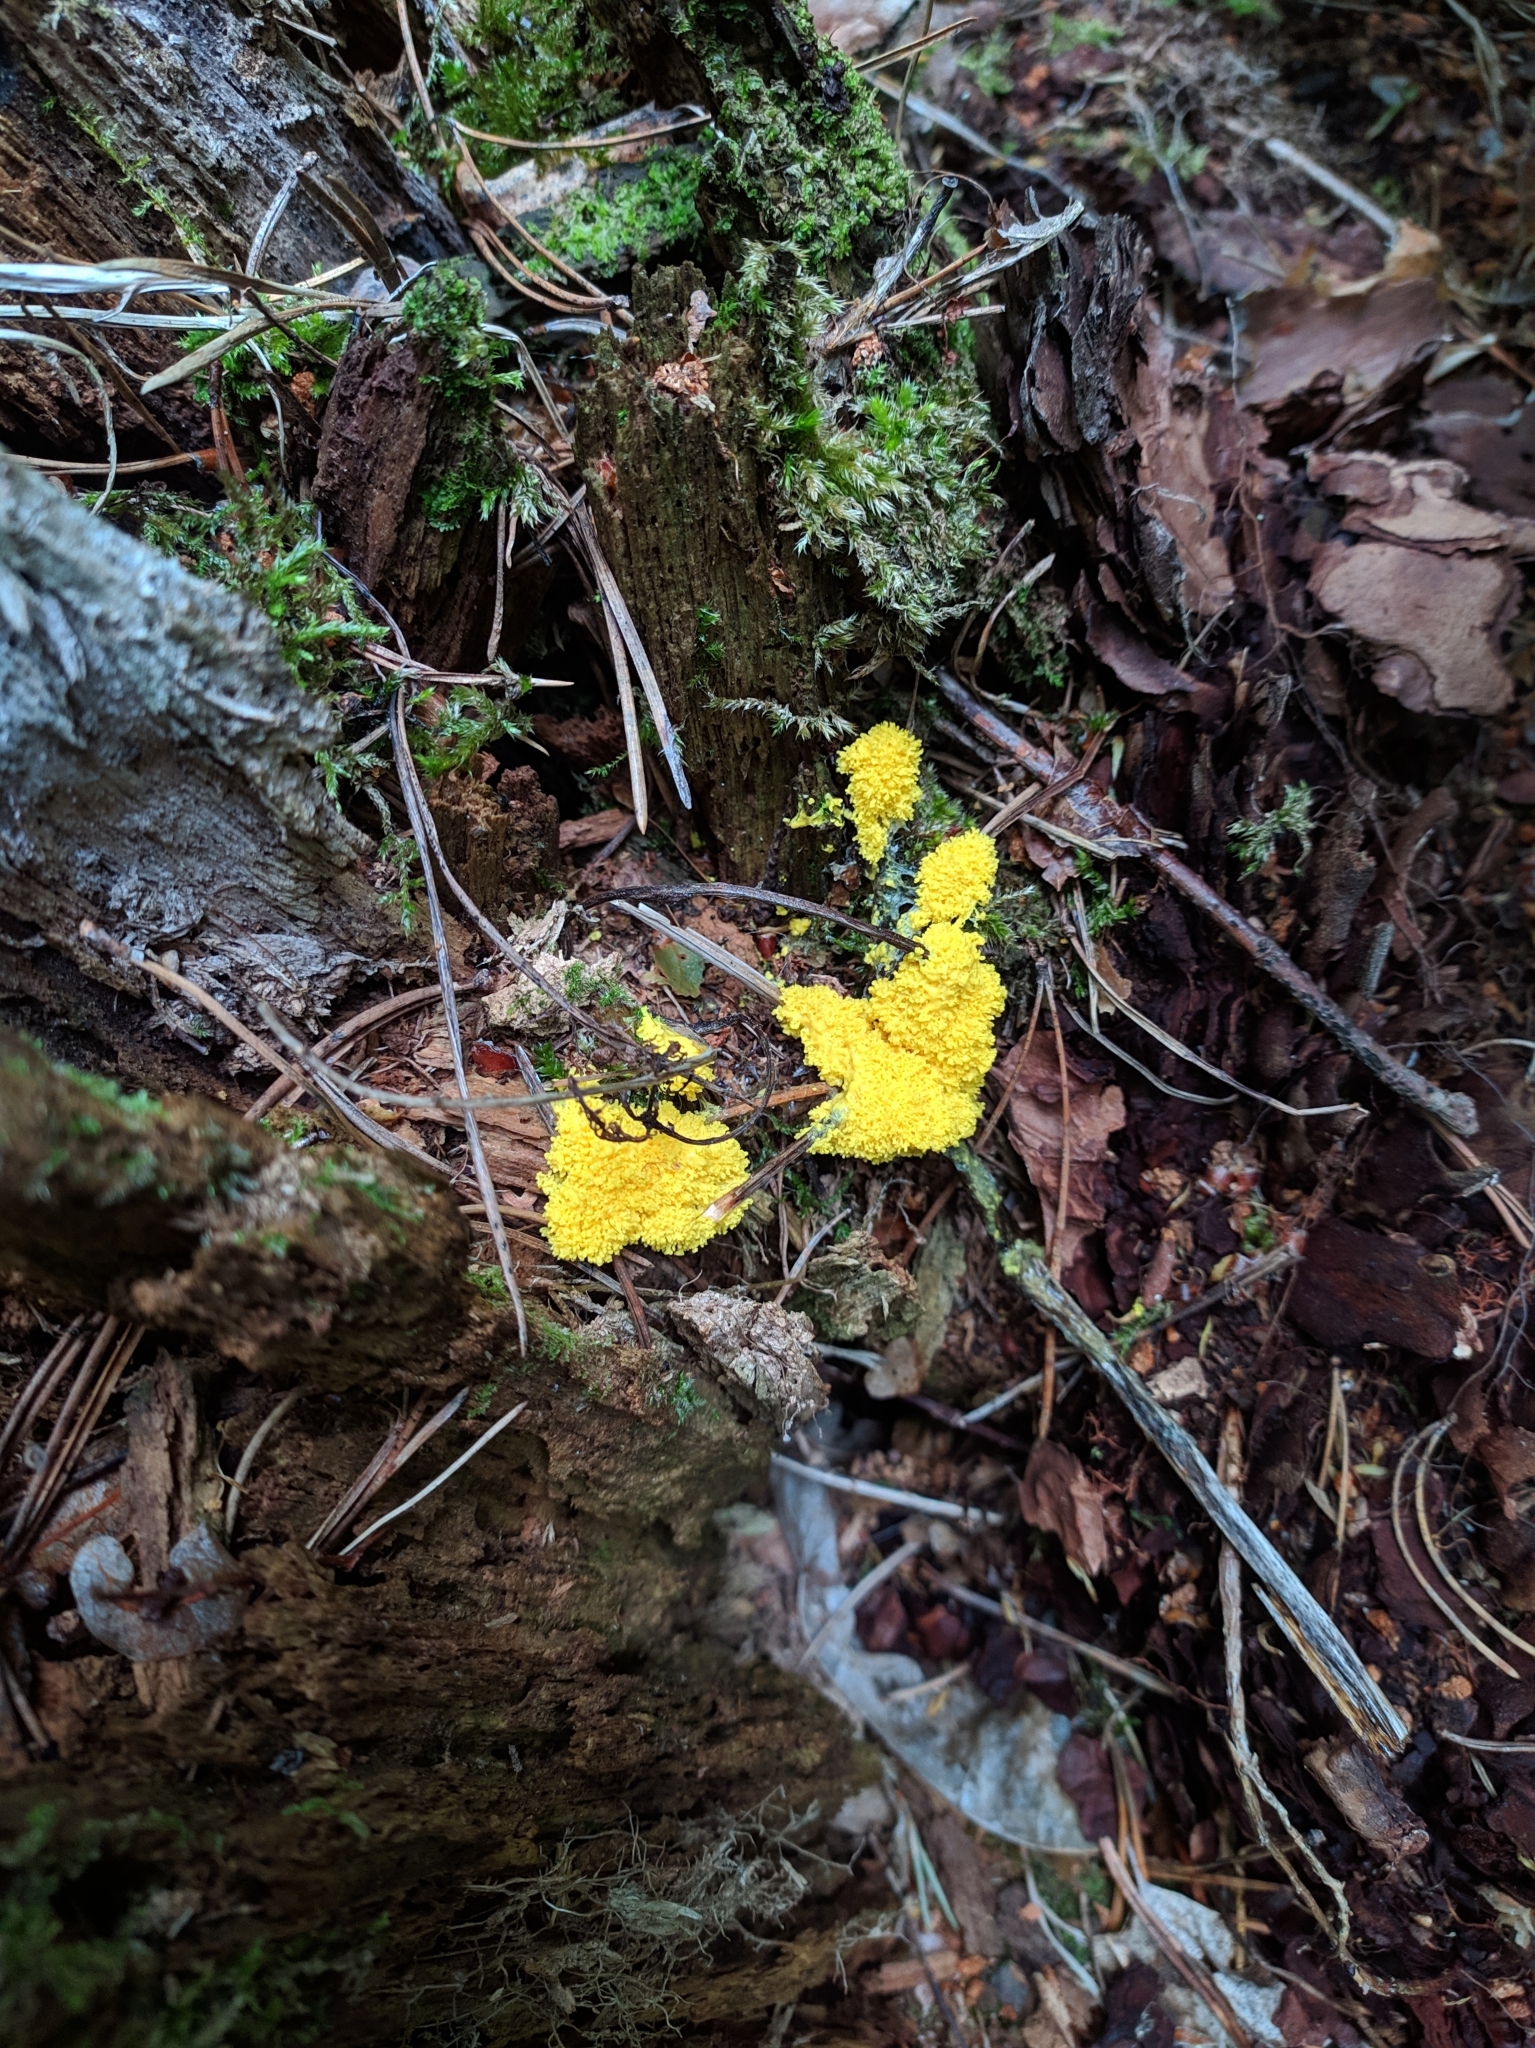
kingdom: Protozoa
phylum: Mycetozoa
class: Myxomycetes
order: Physarales
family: Physaraceae
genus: Fuligo
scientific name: Fuligo septica
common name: Dog vomit slime mold
